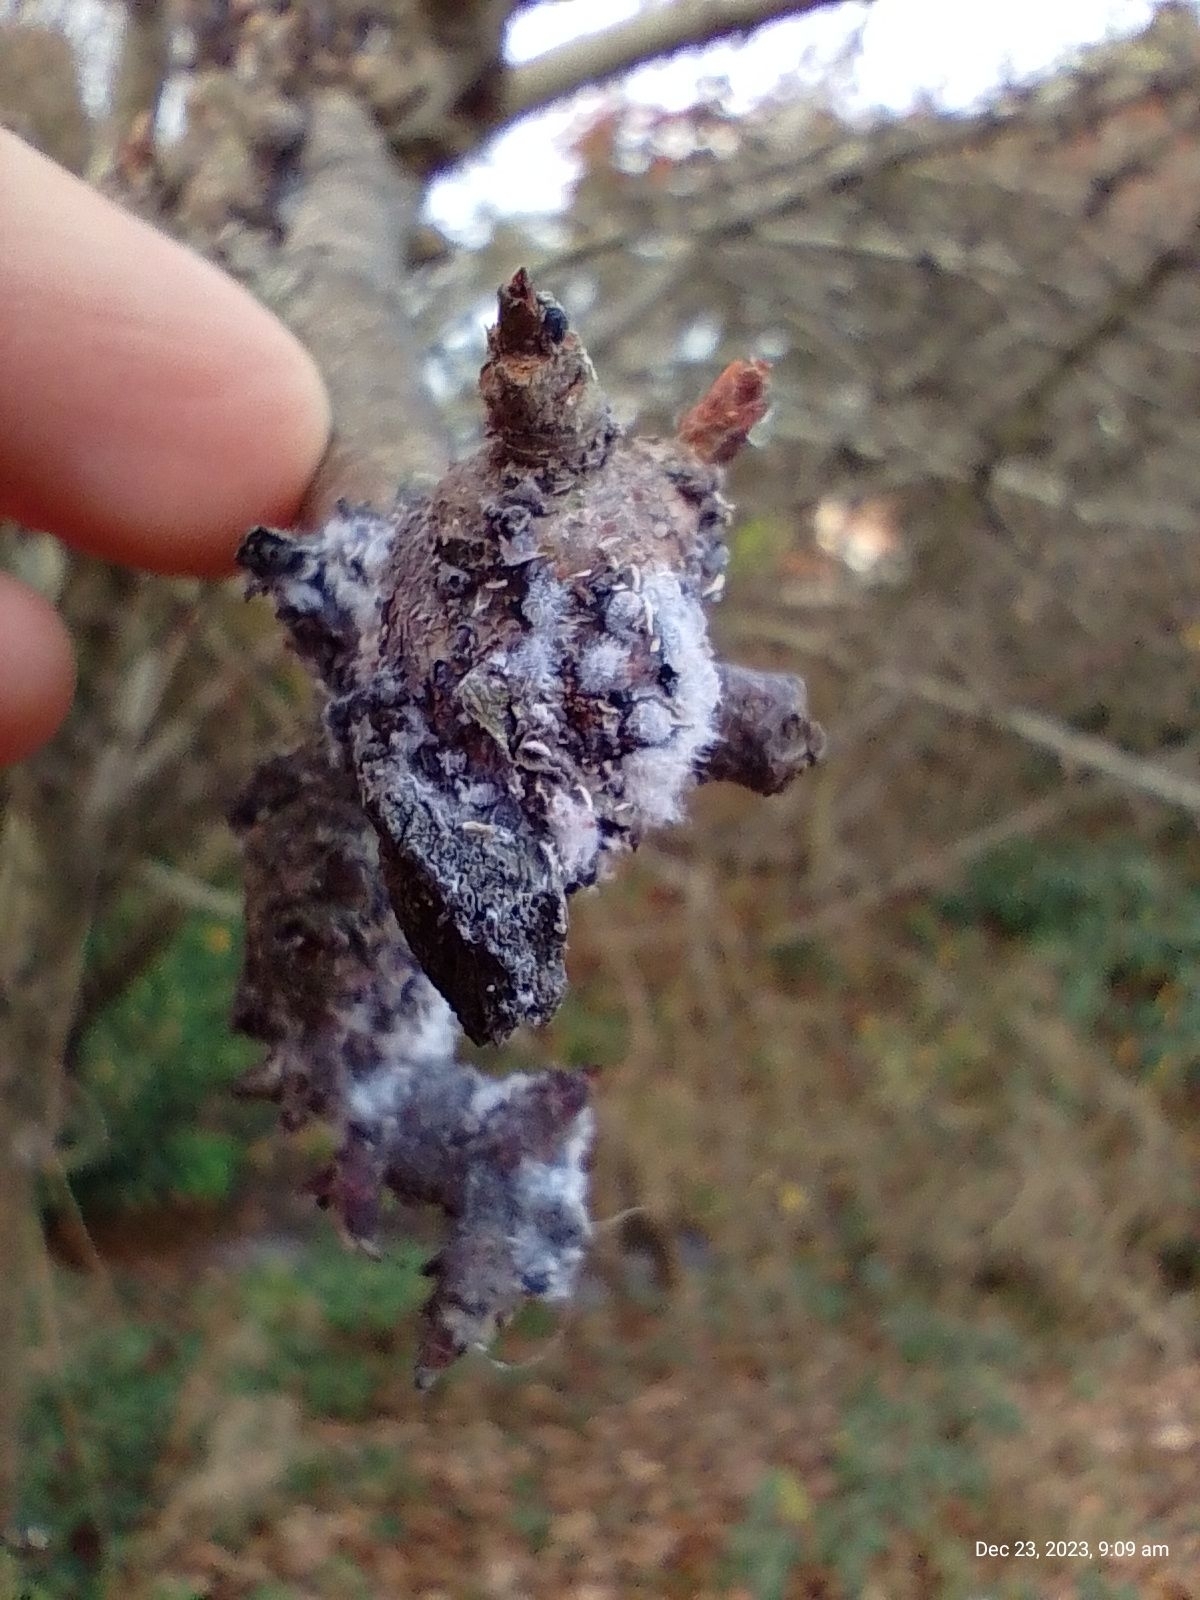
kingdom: Bacteria
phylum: Proteobacteria
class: Alphaproteobacteria
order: Rhizobiales
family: Rhizobiaceae
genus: Rhizobium
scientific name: Rhizobium Agrobacterium radiobacter
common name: Bacterial crown gall
